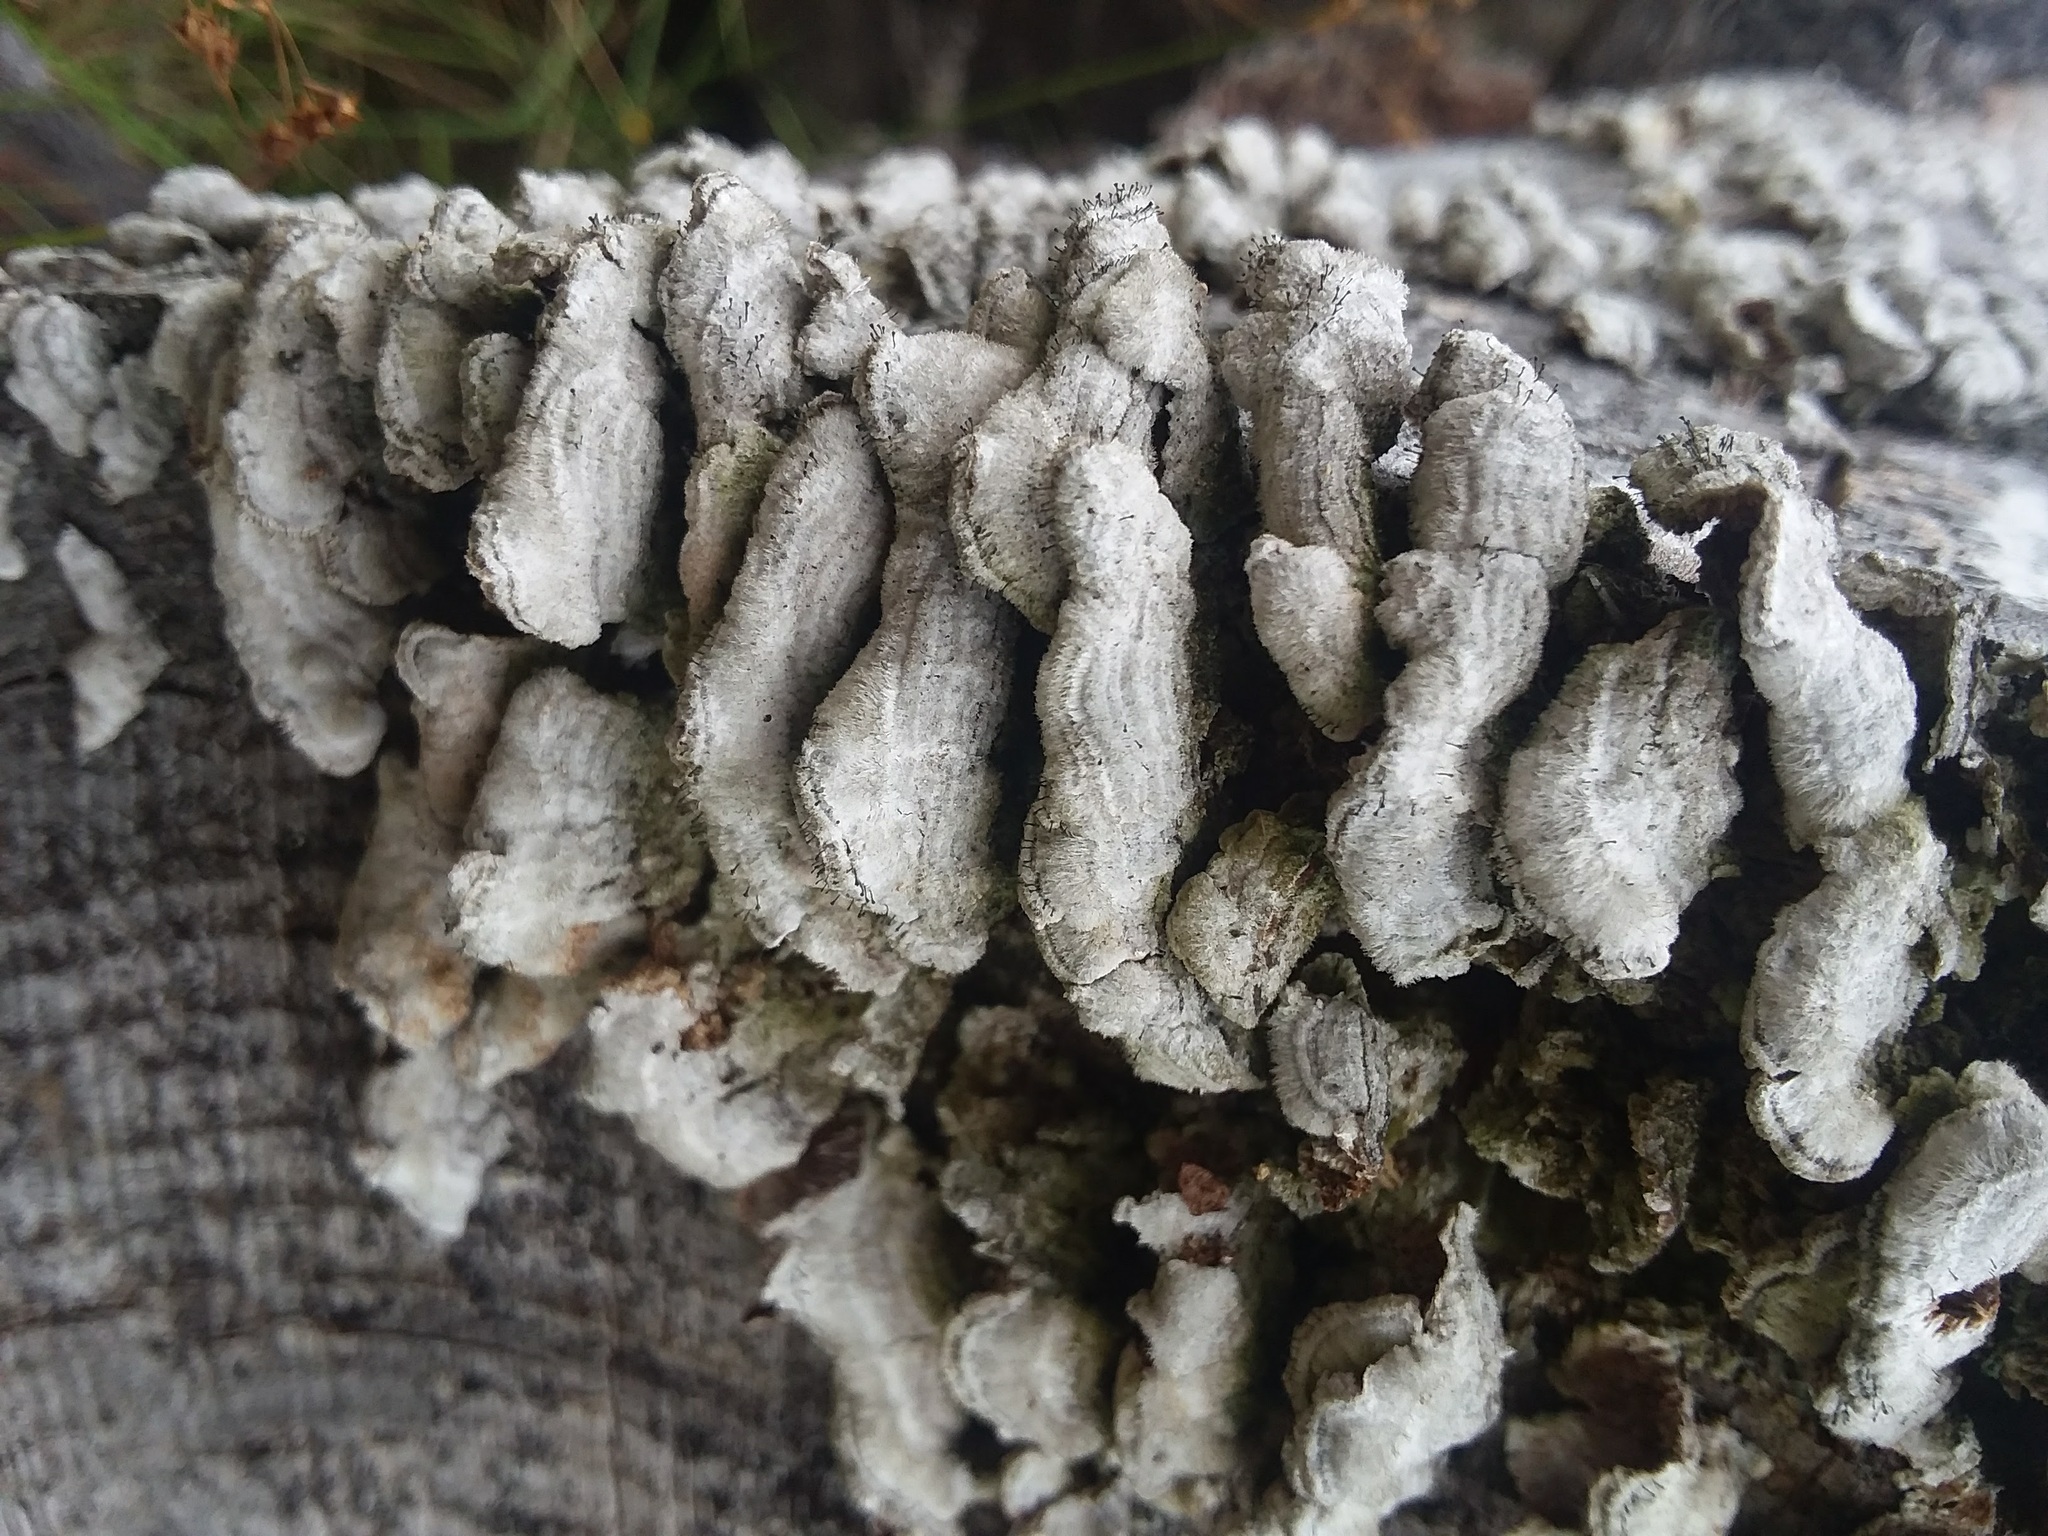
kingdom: Fungi
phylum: Basidiomycota
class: Agaricomycetes
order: Hymenochaetales
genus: Trichaptum
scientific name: Trichaptum abietinum
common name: Purplepore bracket
